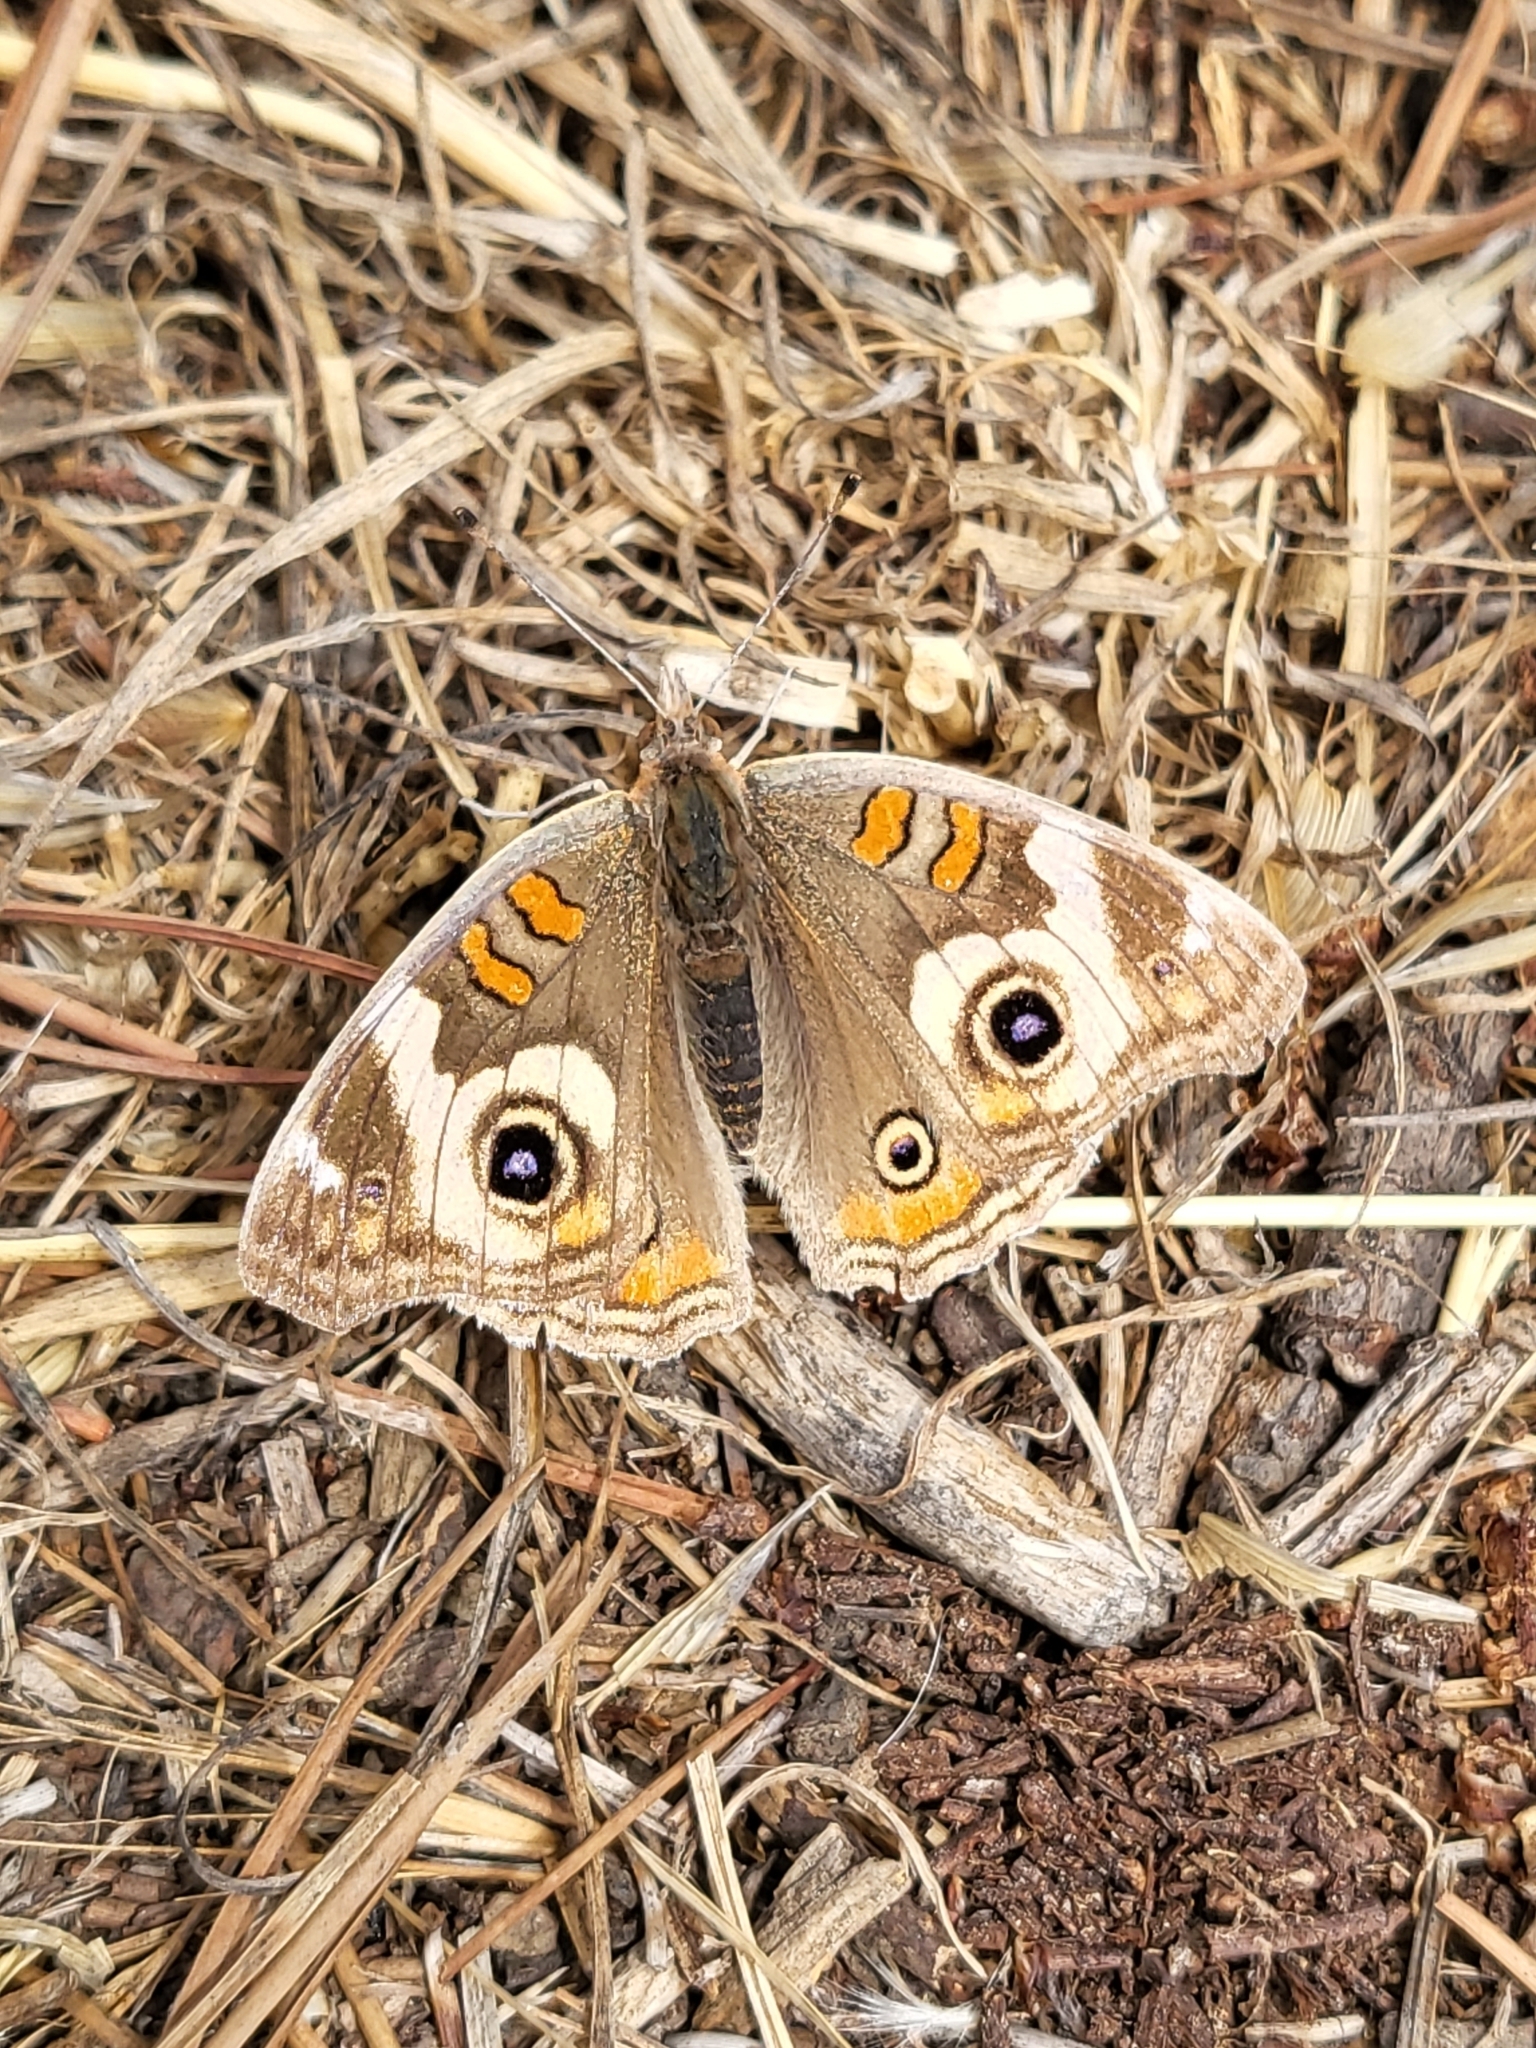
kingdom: Animalia
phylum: Arthropoda
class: Insecta
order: Lepidoptera
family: Nymphalidae
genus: Junonia
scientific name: Junonia grisea
